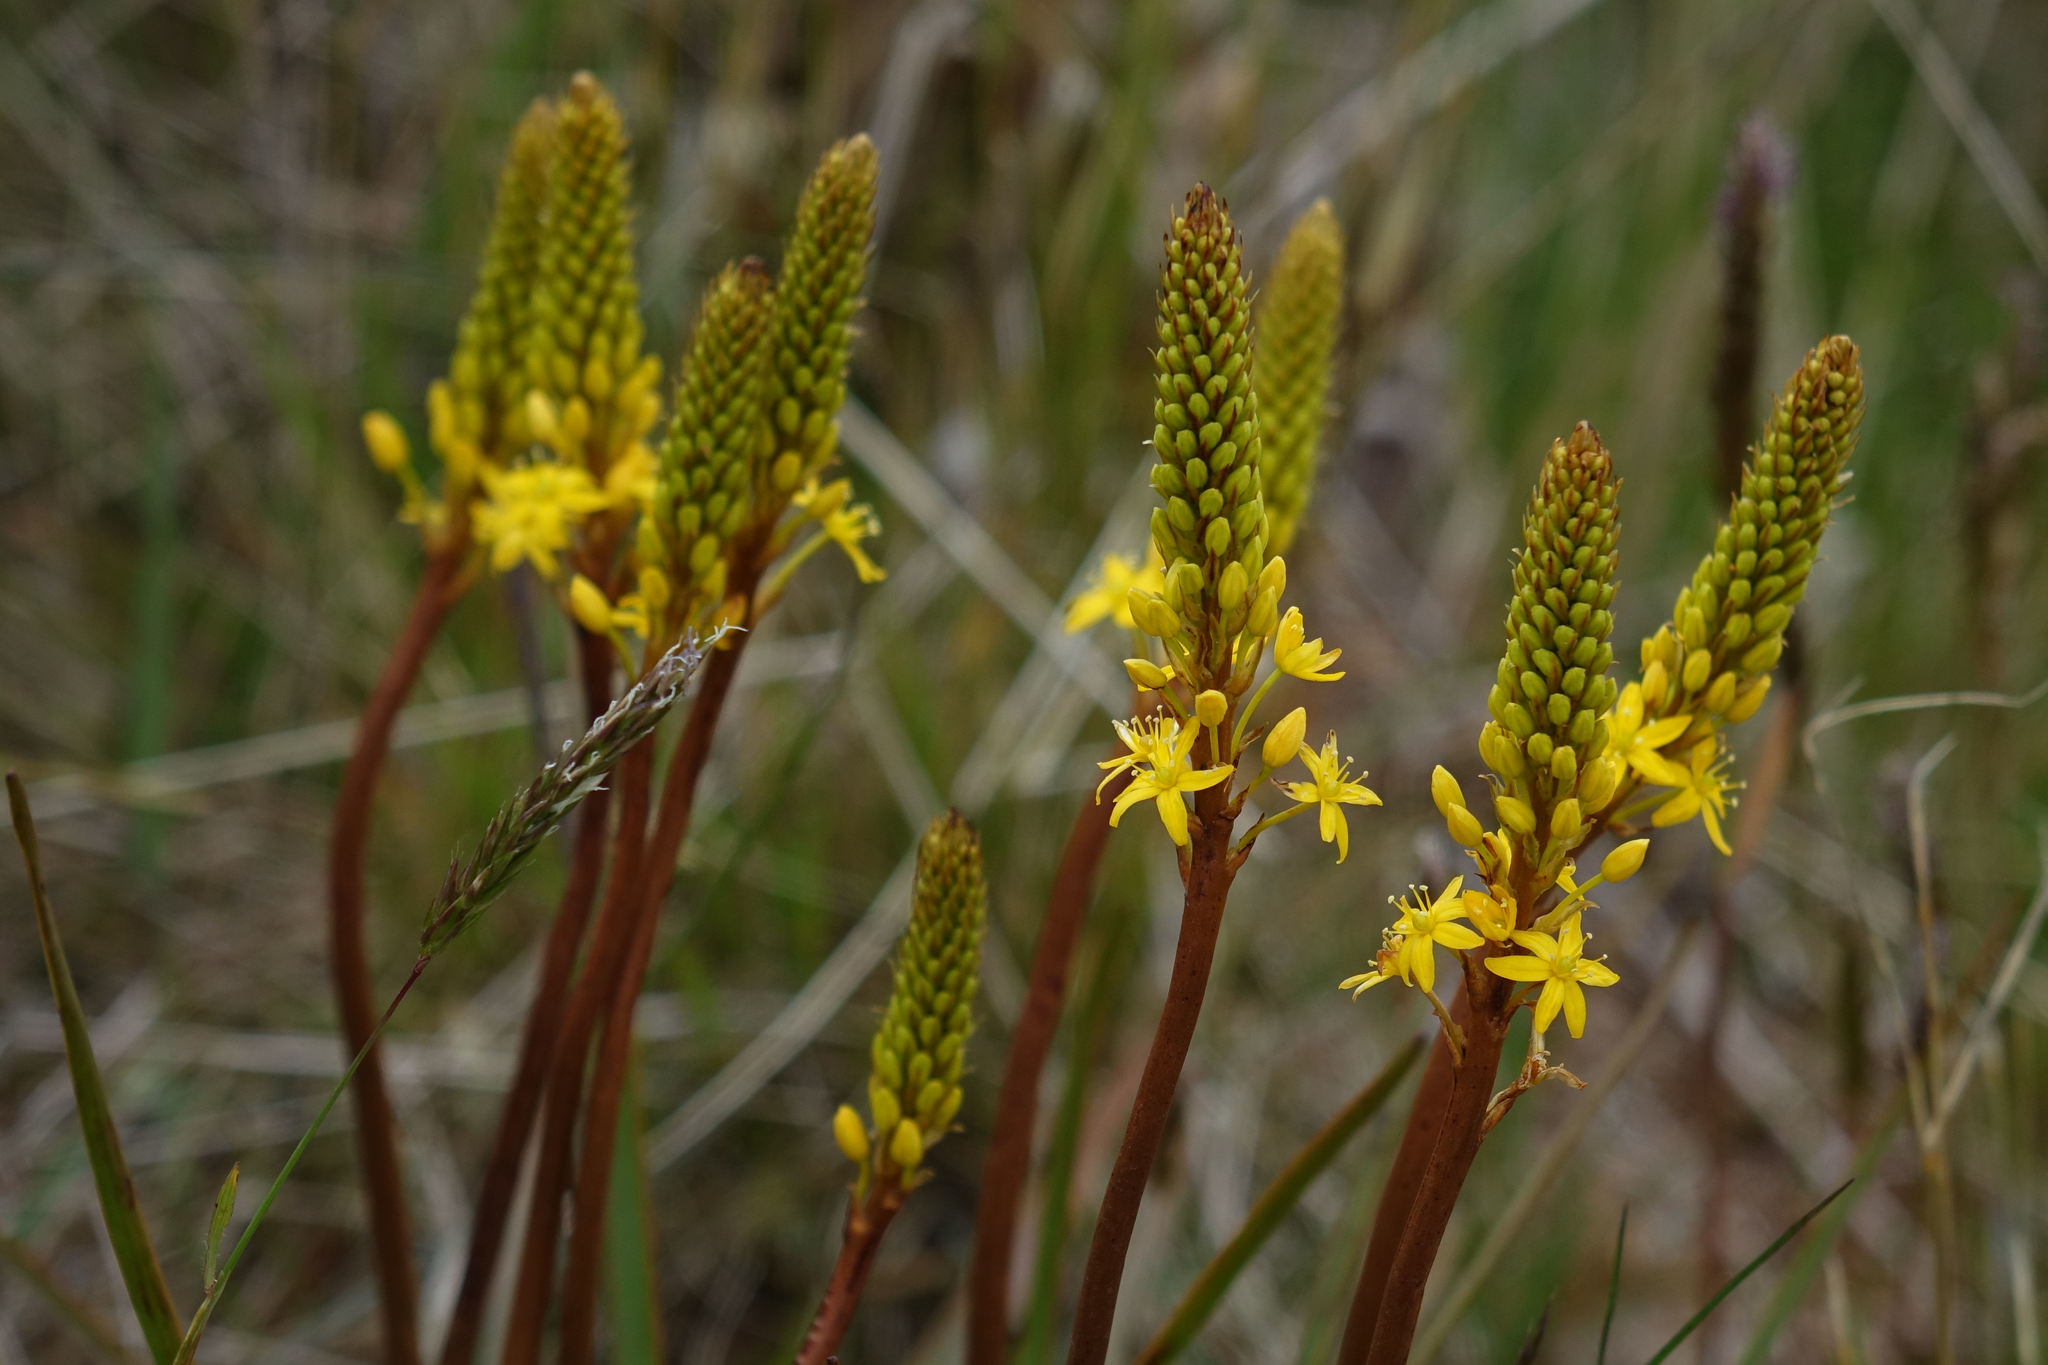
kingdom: Plantae
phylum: Tracheophyta
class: Liliopsida
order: Asparagales
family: Asphodelaceae
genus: Bulbinella
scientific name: Bulbinella angustifolia
